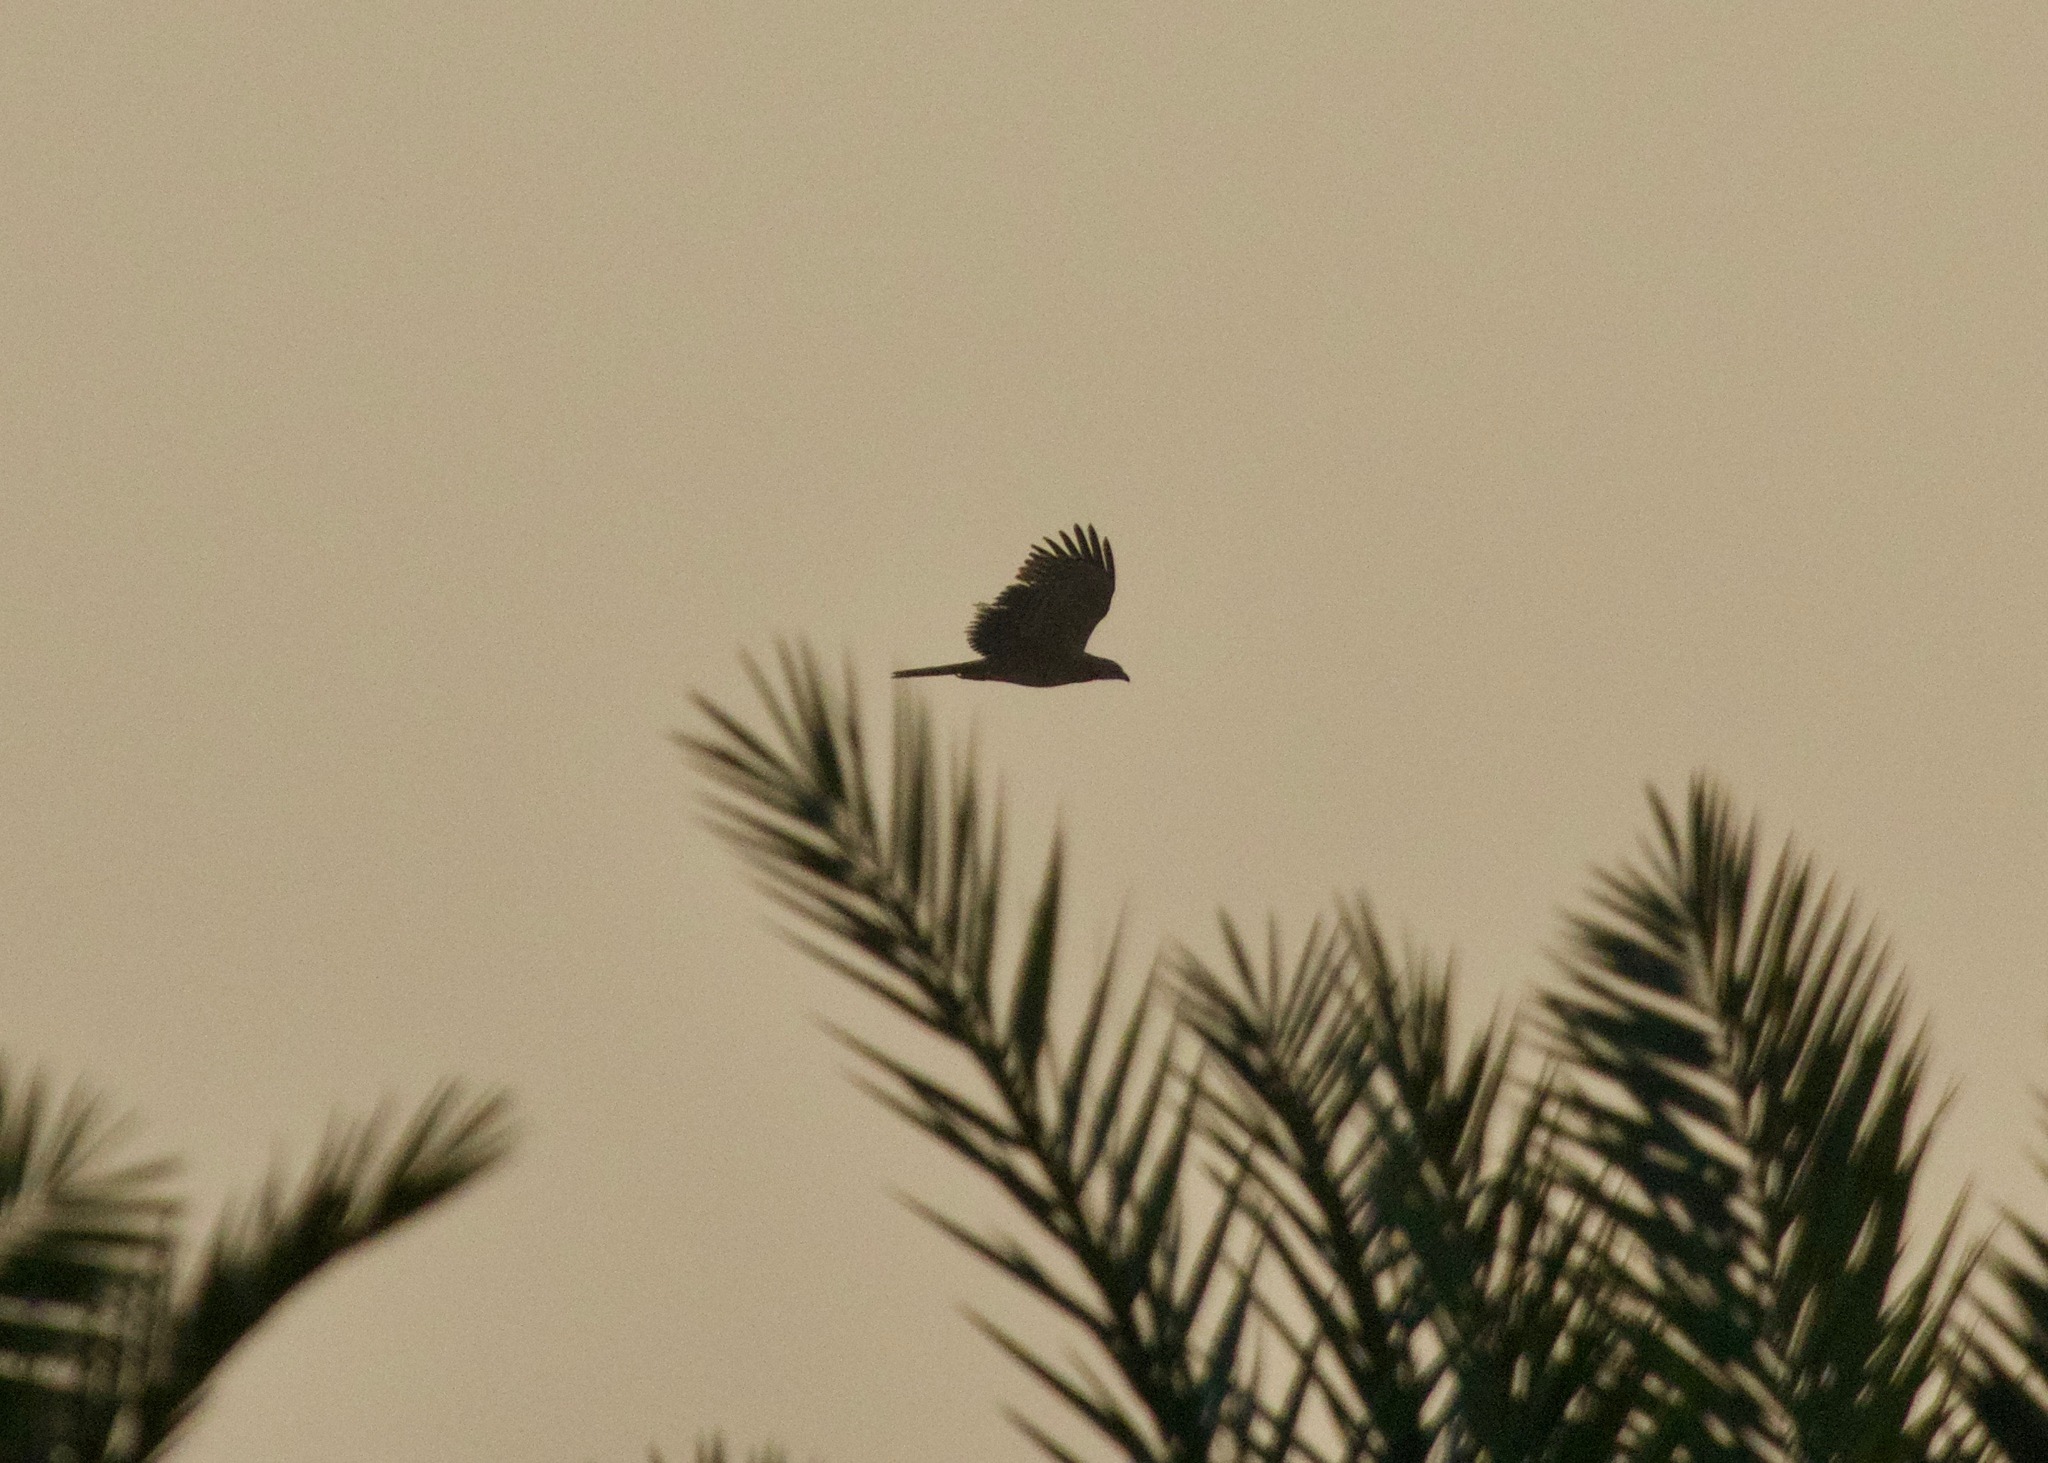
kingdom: Animalia
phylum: Chordata
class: Aves
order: Accipitriformes
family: Accipitridae
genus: Pernis
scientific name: Pernis apivorus
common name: European honey buzzard
